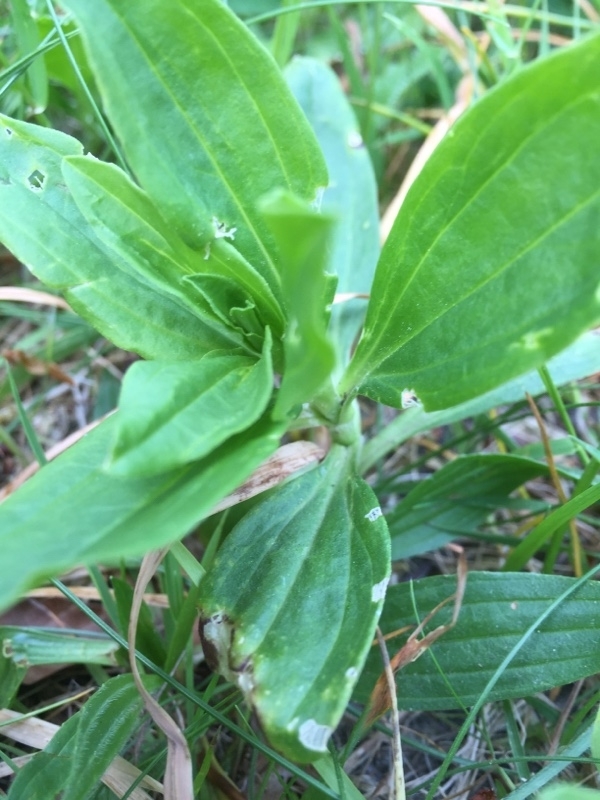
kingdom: Plantae
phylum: Tracheophyta
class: Magnoliopsida
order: Caryophyllales
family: Caryophyllaceae
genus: Saponaria
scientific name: Saponaria officinalis
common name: Soapwort
